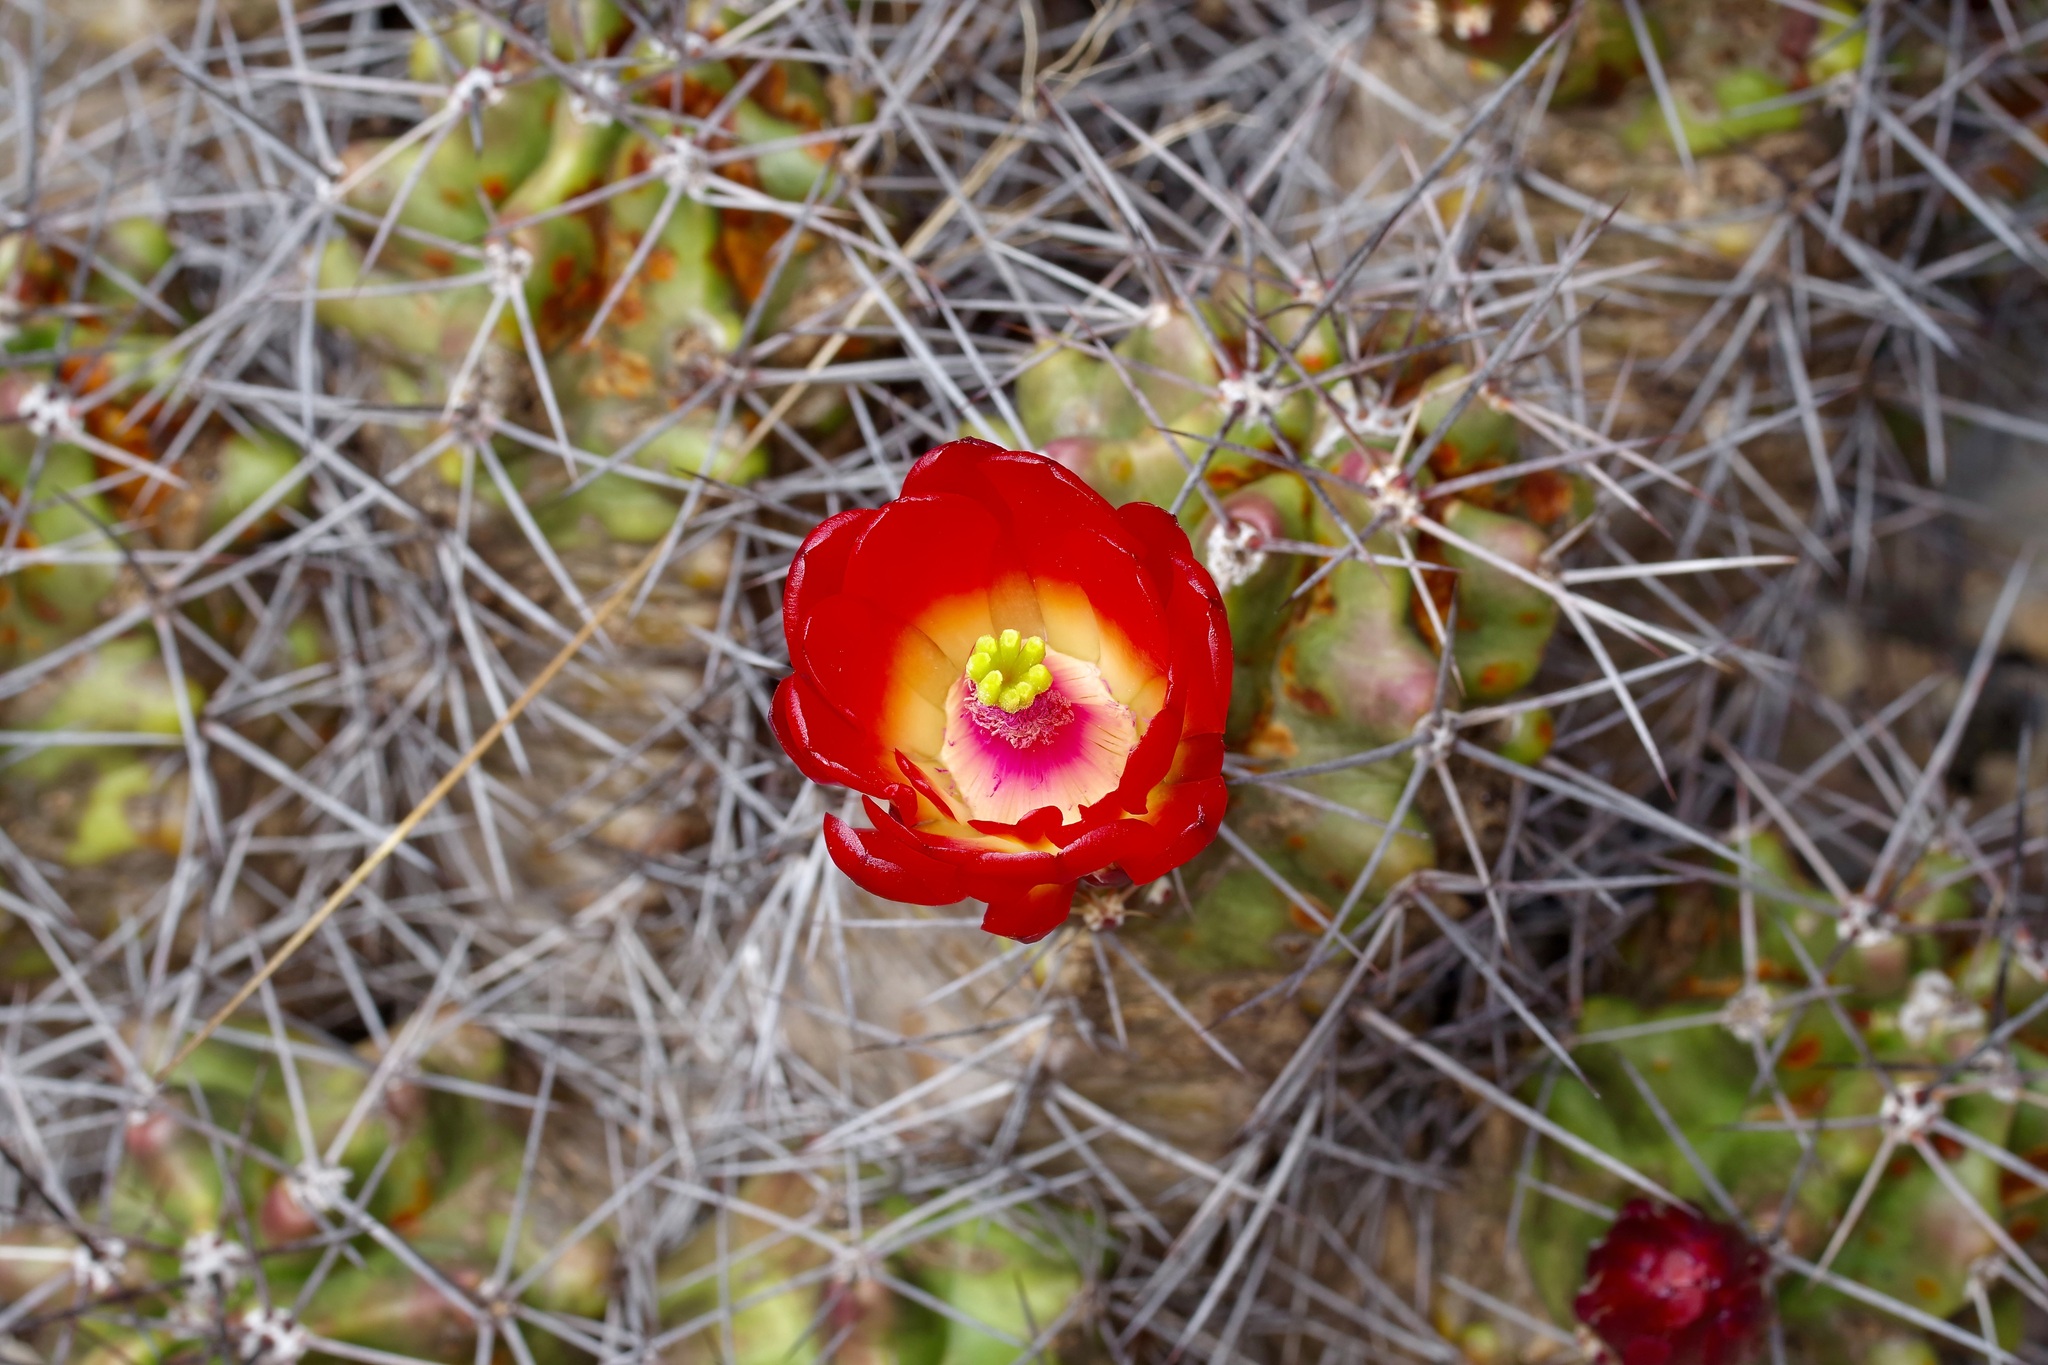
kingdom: Plantae
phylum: Tracheophyta
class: Magnoliopsida
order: Caryophyllales
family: Cactaceae
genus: Echinocereus
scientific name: Echinocereus coccineus
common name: Scarlet hedgehog cactus
